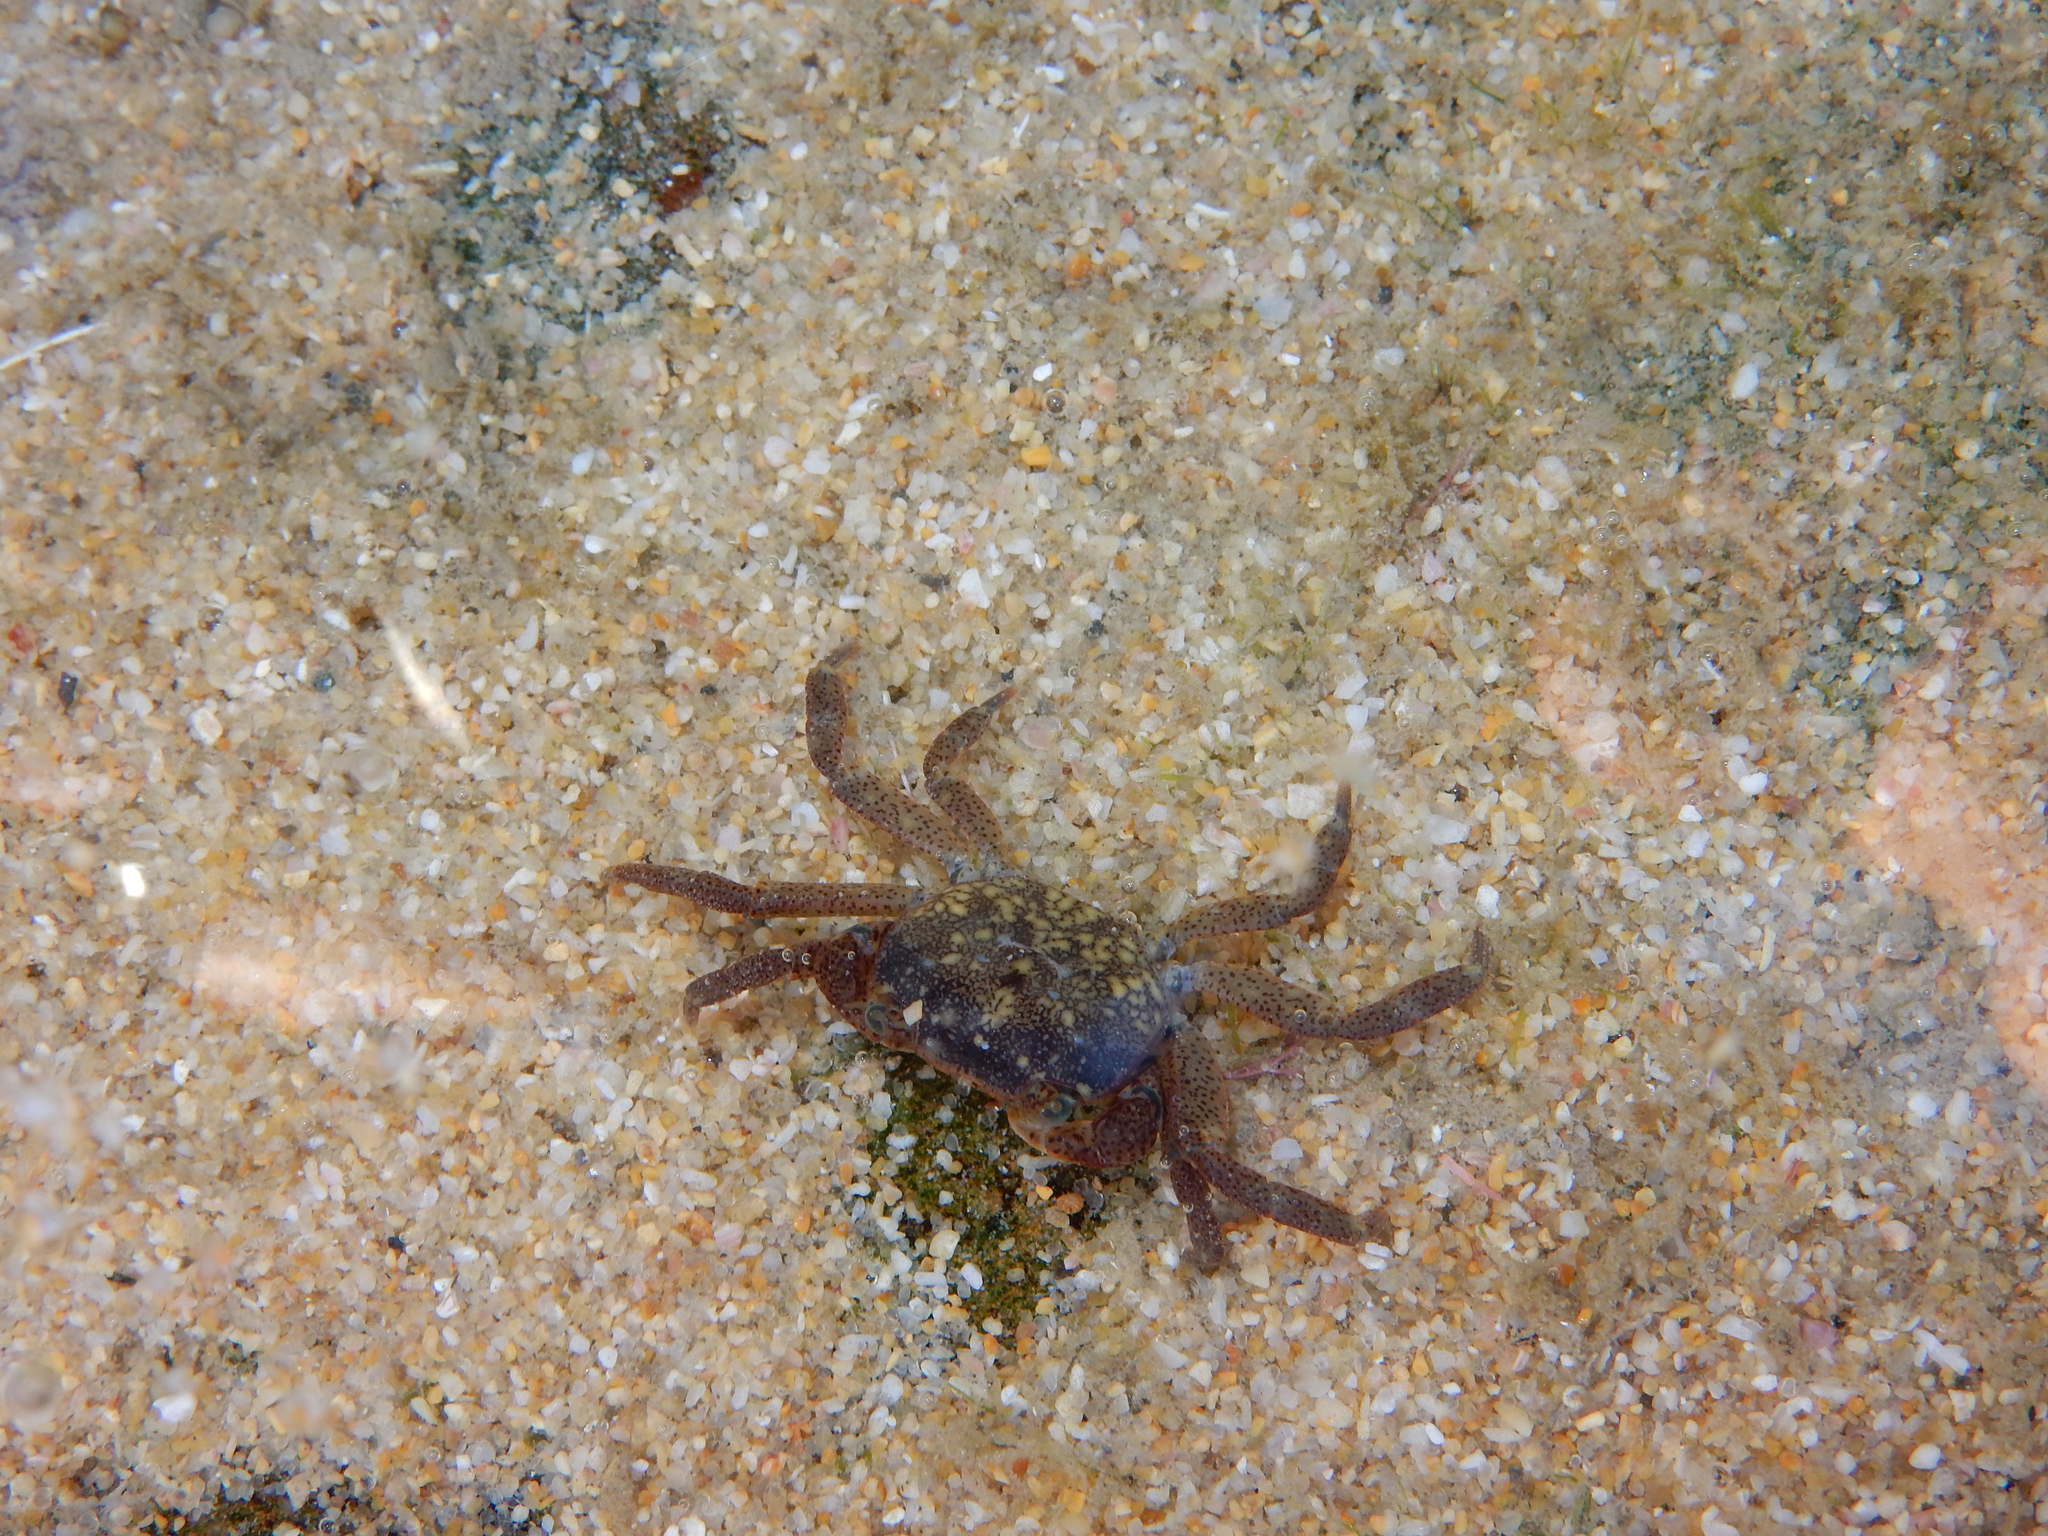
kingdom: Animalia
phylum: Arthropoda
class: Malacostraca
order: Decapoda
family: Varunidae
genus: Cyclograpsus
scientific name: Cyclograpsus punctatus
